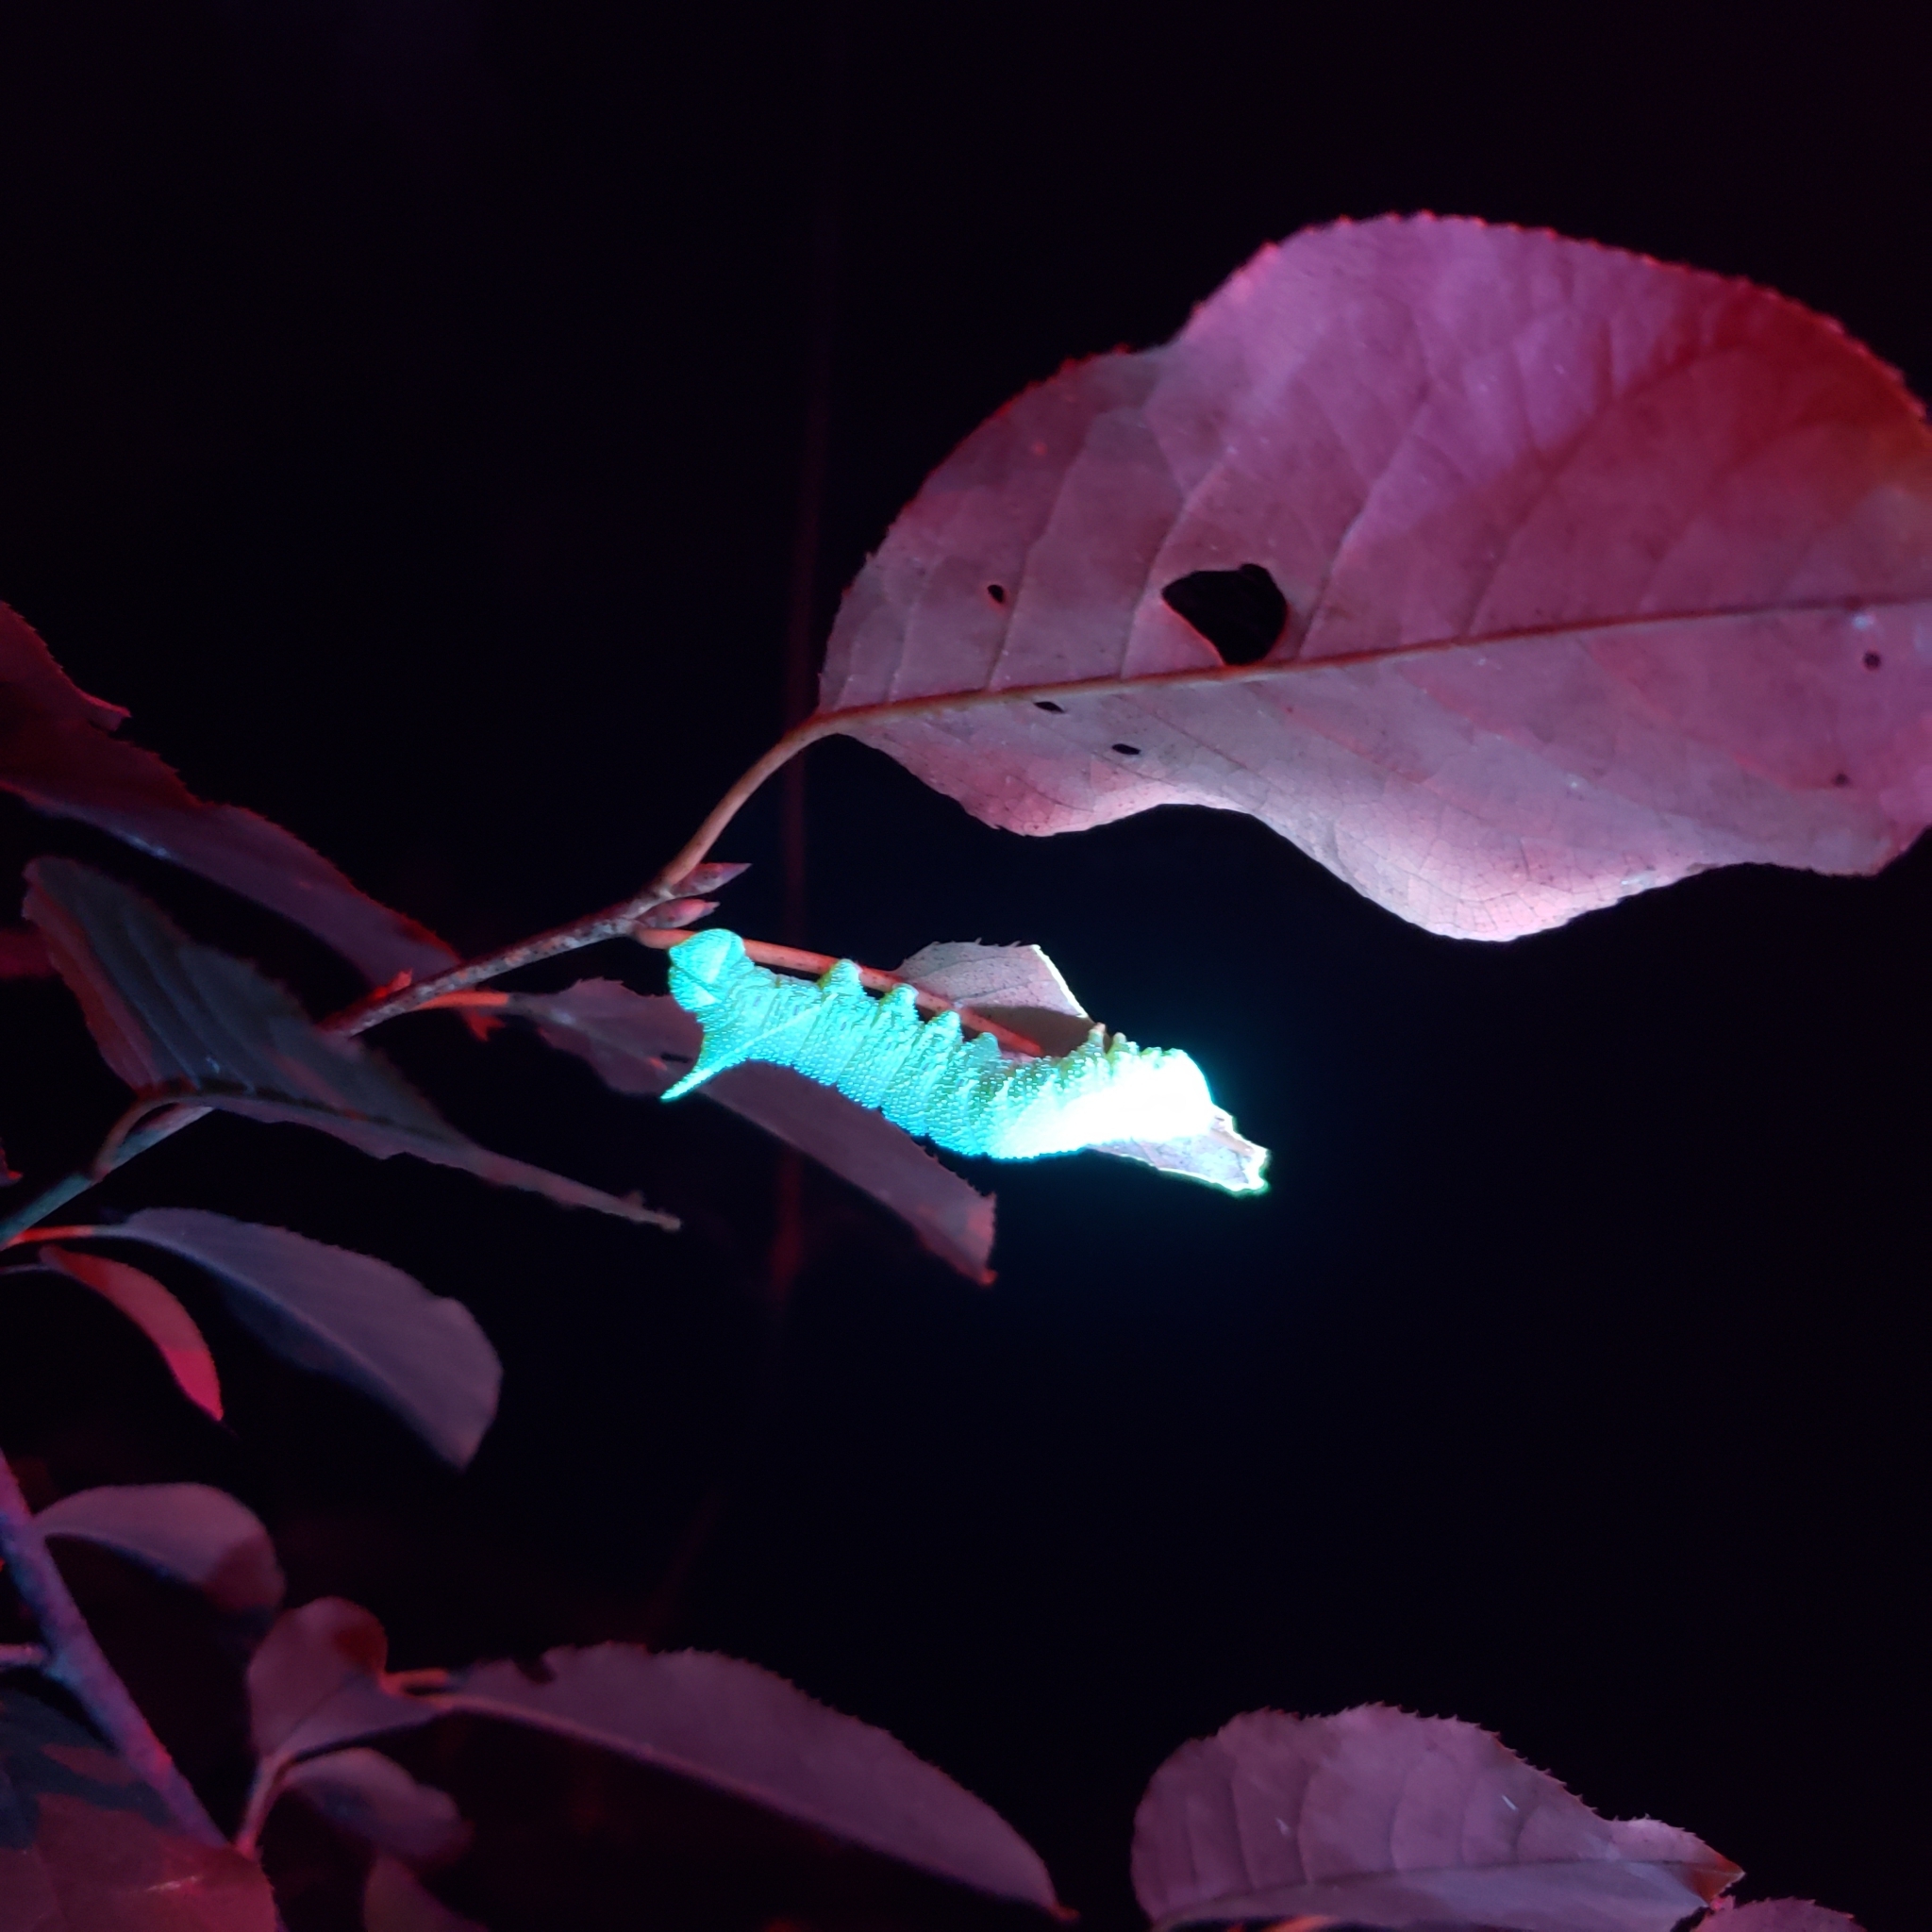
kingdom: Animalia
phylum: Arthropoda
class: Insecta
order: Lepidoptera
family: Sphingidae
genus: Paonias
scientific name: Paonias excaecata
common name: Blind-eyed sphinx
